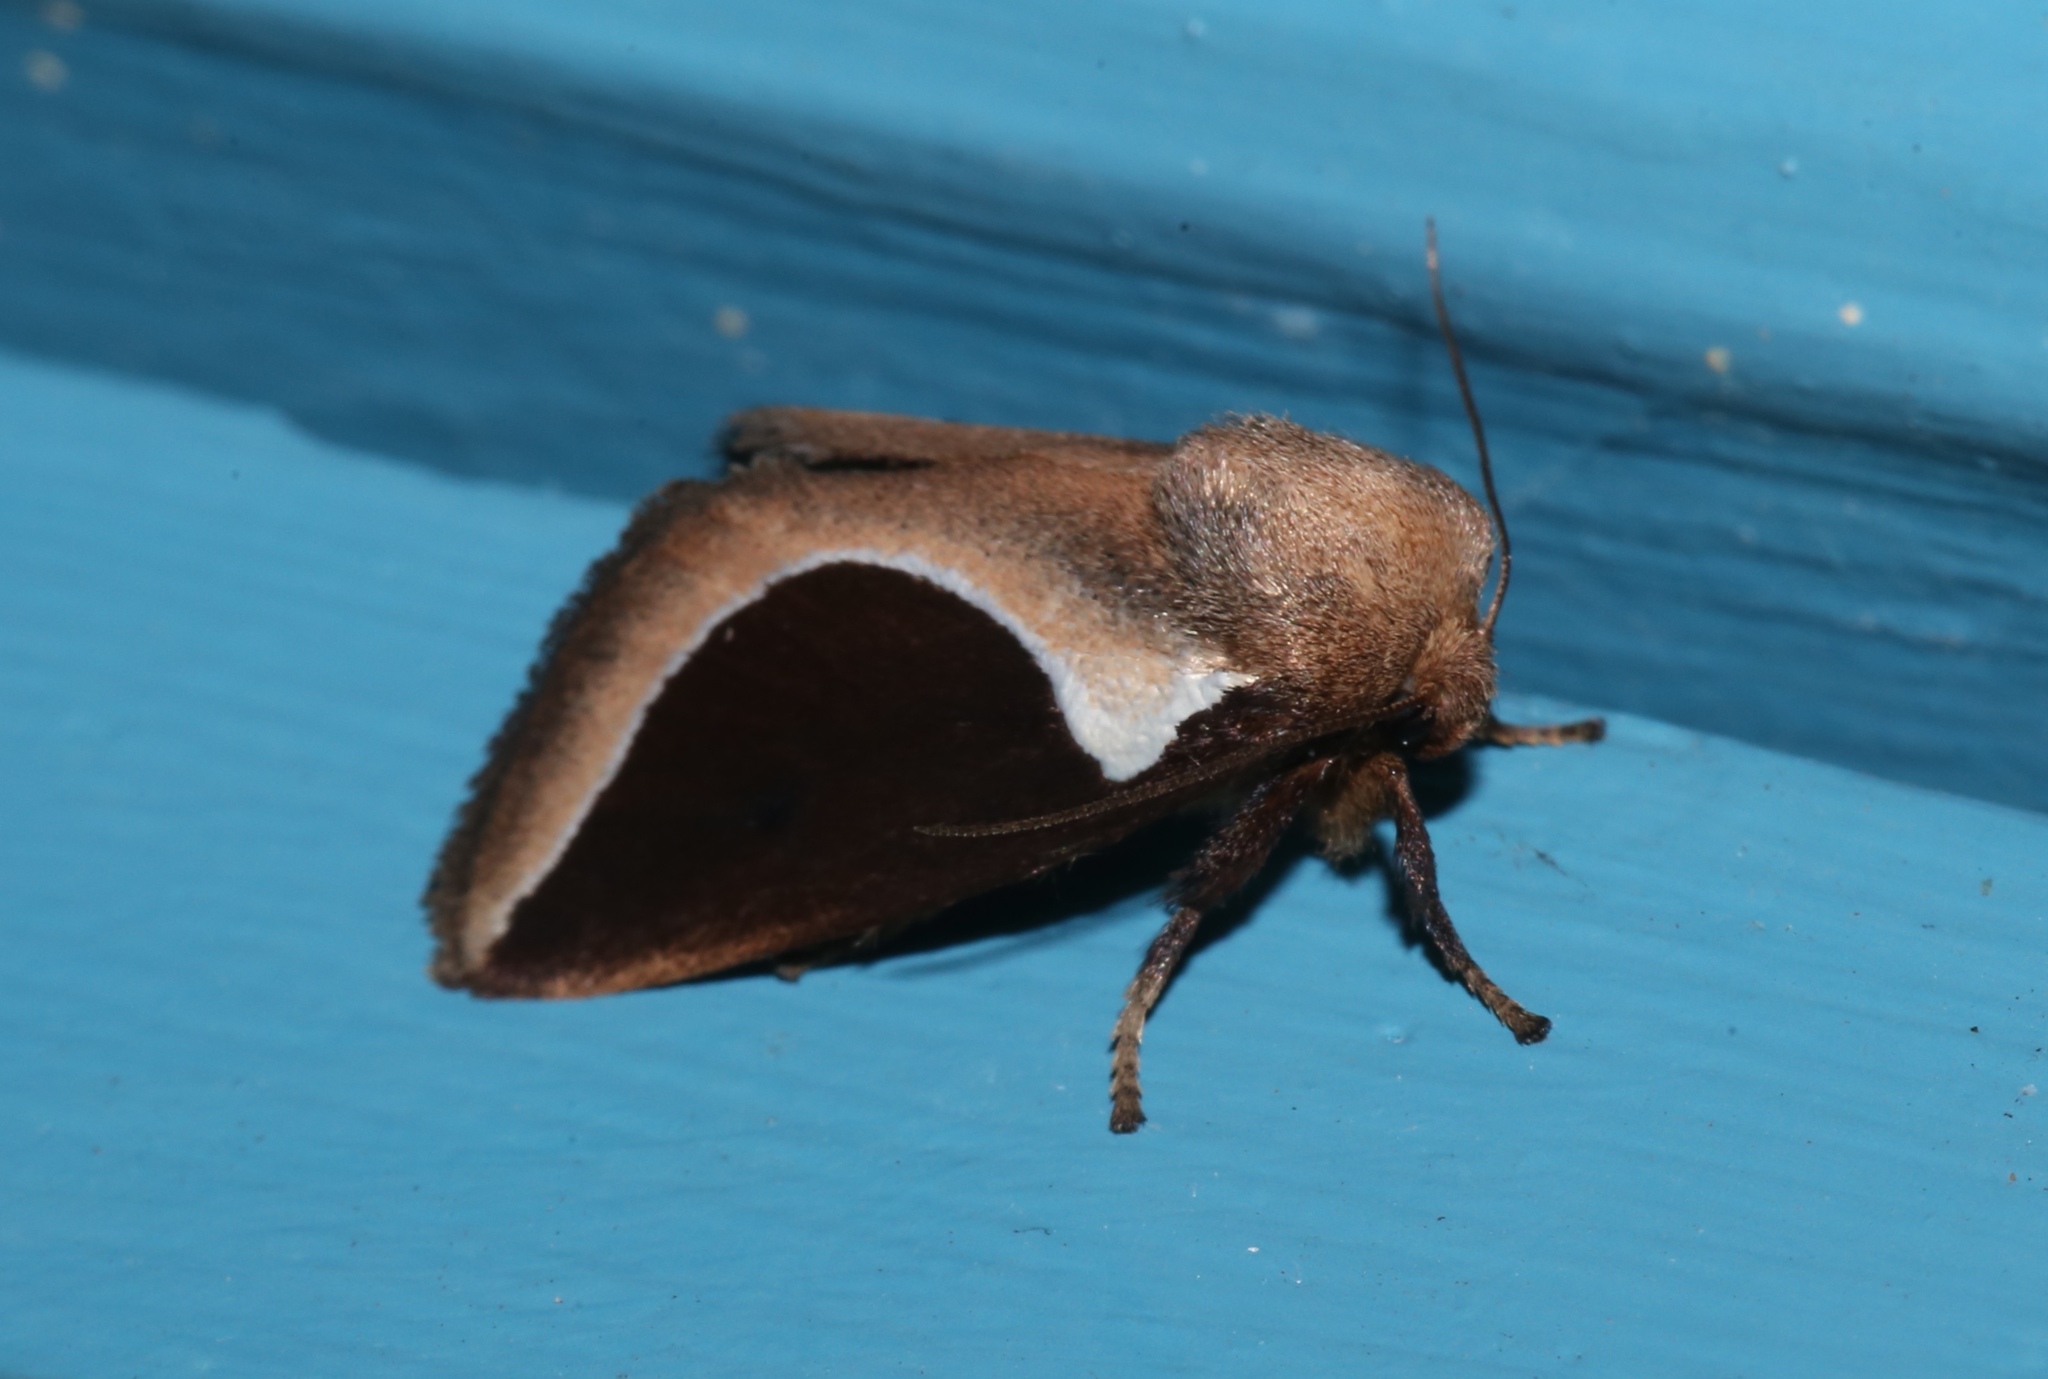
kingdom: Animalia
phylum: Arthropoda
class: Insecta
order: Lepidoptera
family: Limacodidae
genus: Prolimacodes
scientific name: Prolimacodes badia
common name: Skiff moth
